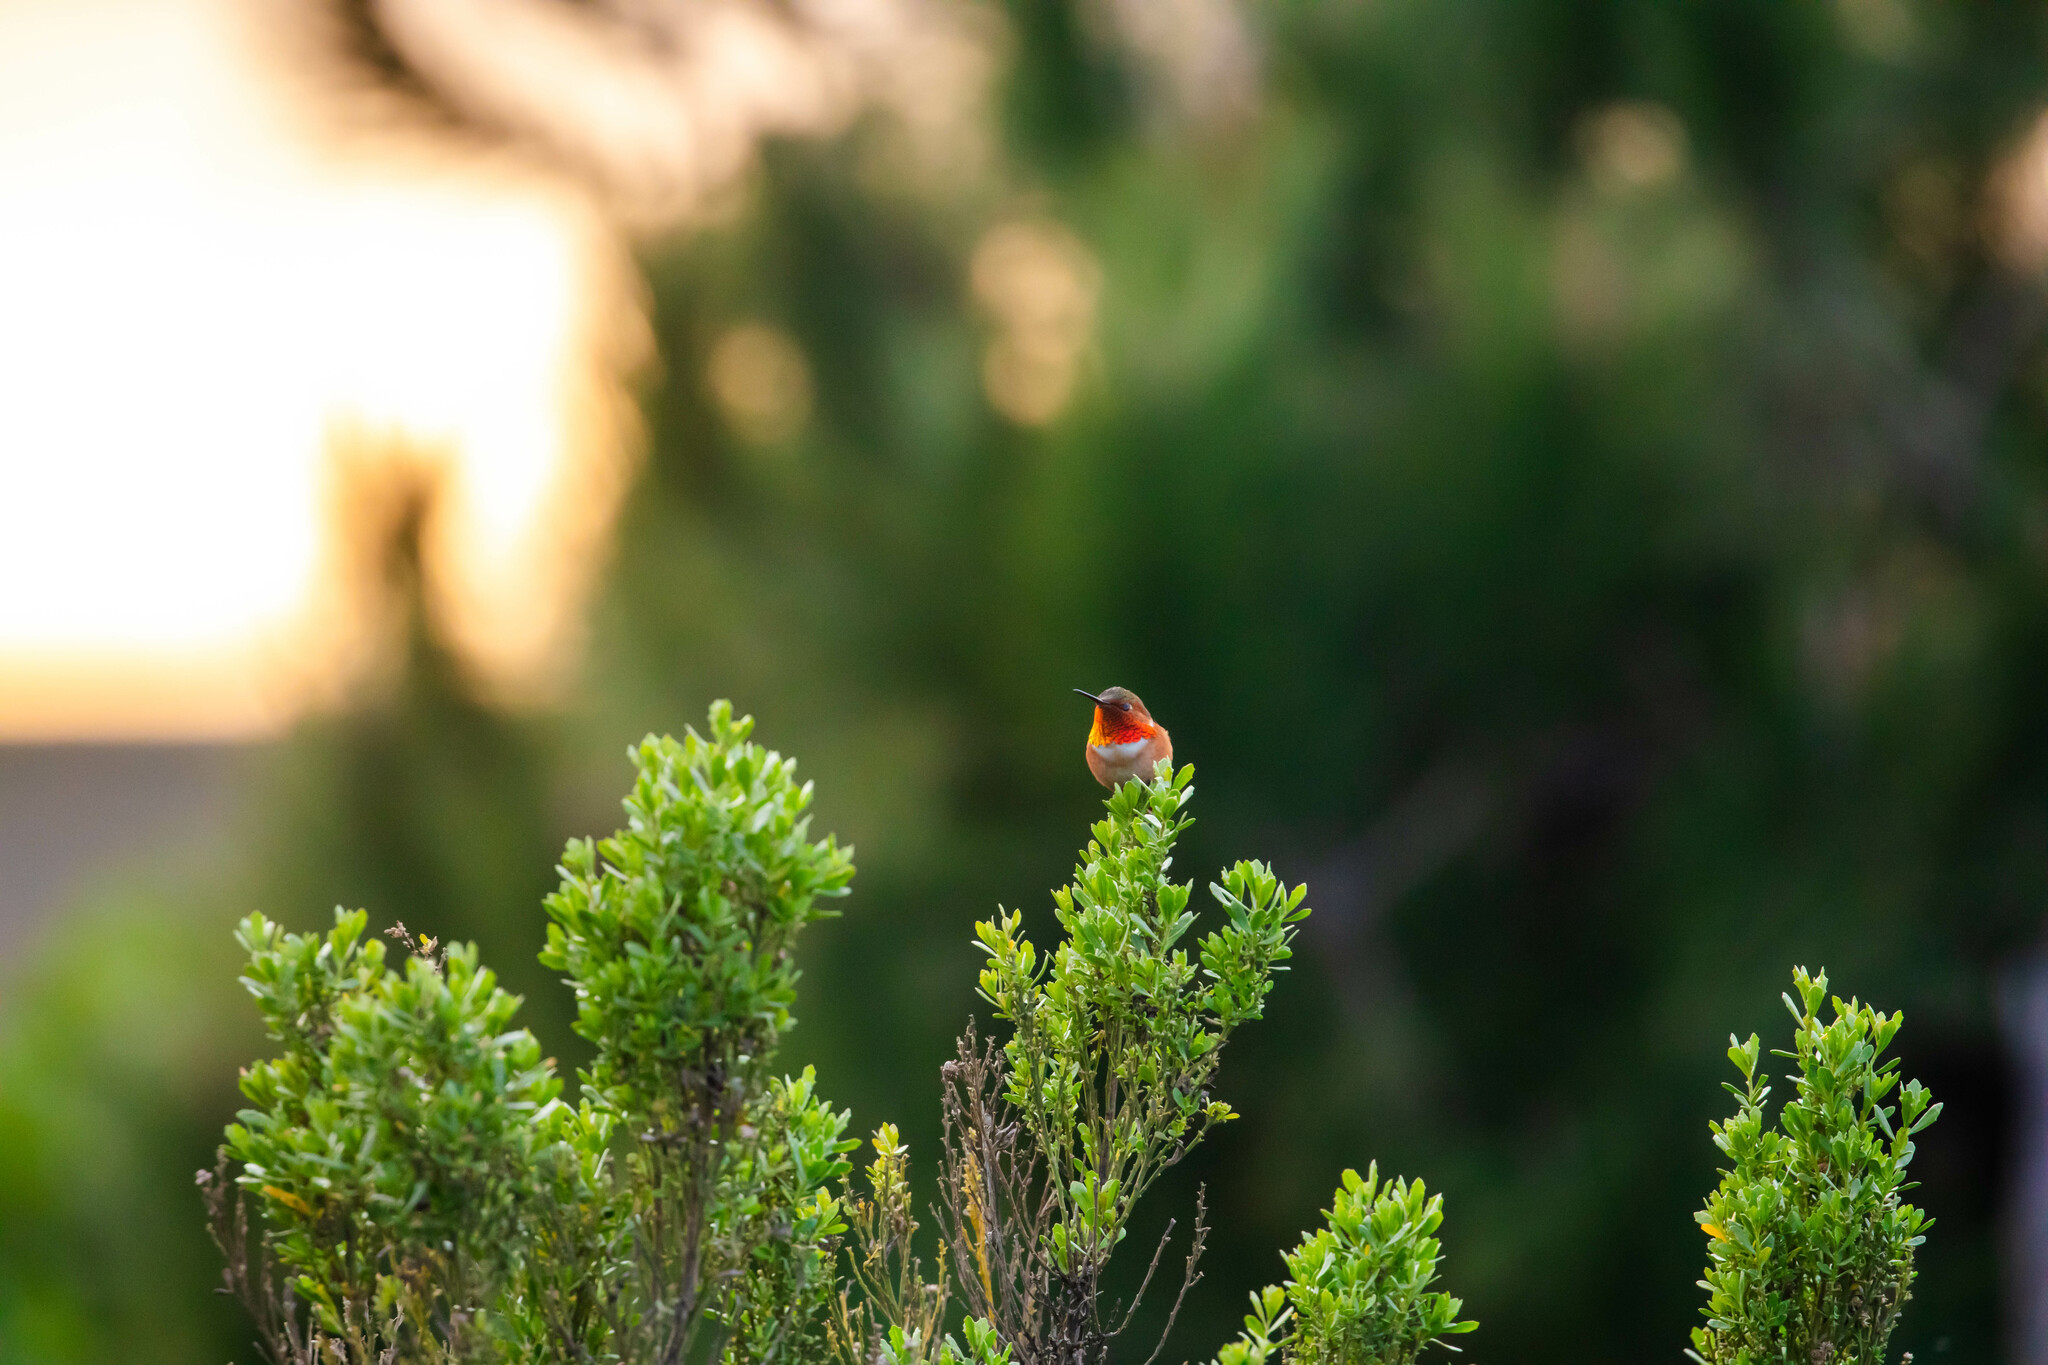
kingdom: Animalia
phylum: Chordata
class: Aves
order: Apodiformes
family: Trochilidae
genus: Selasphorus
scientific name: Selasphorus
